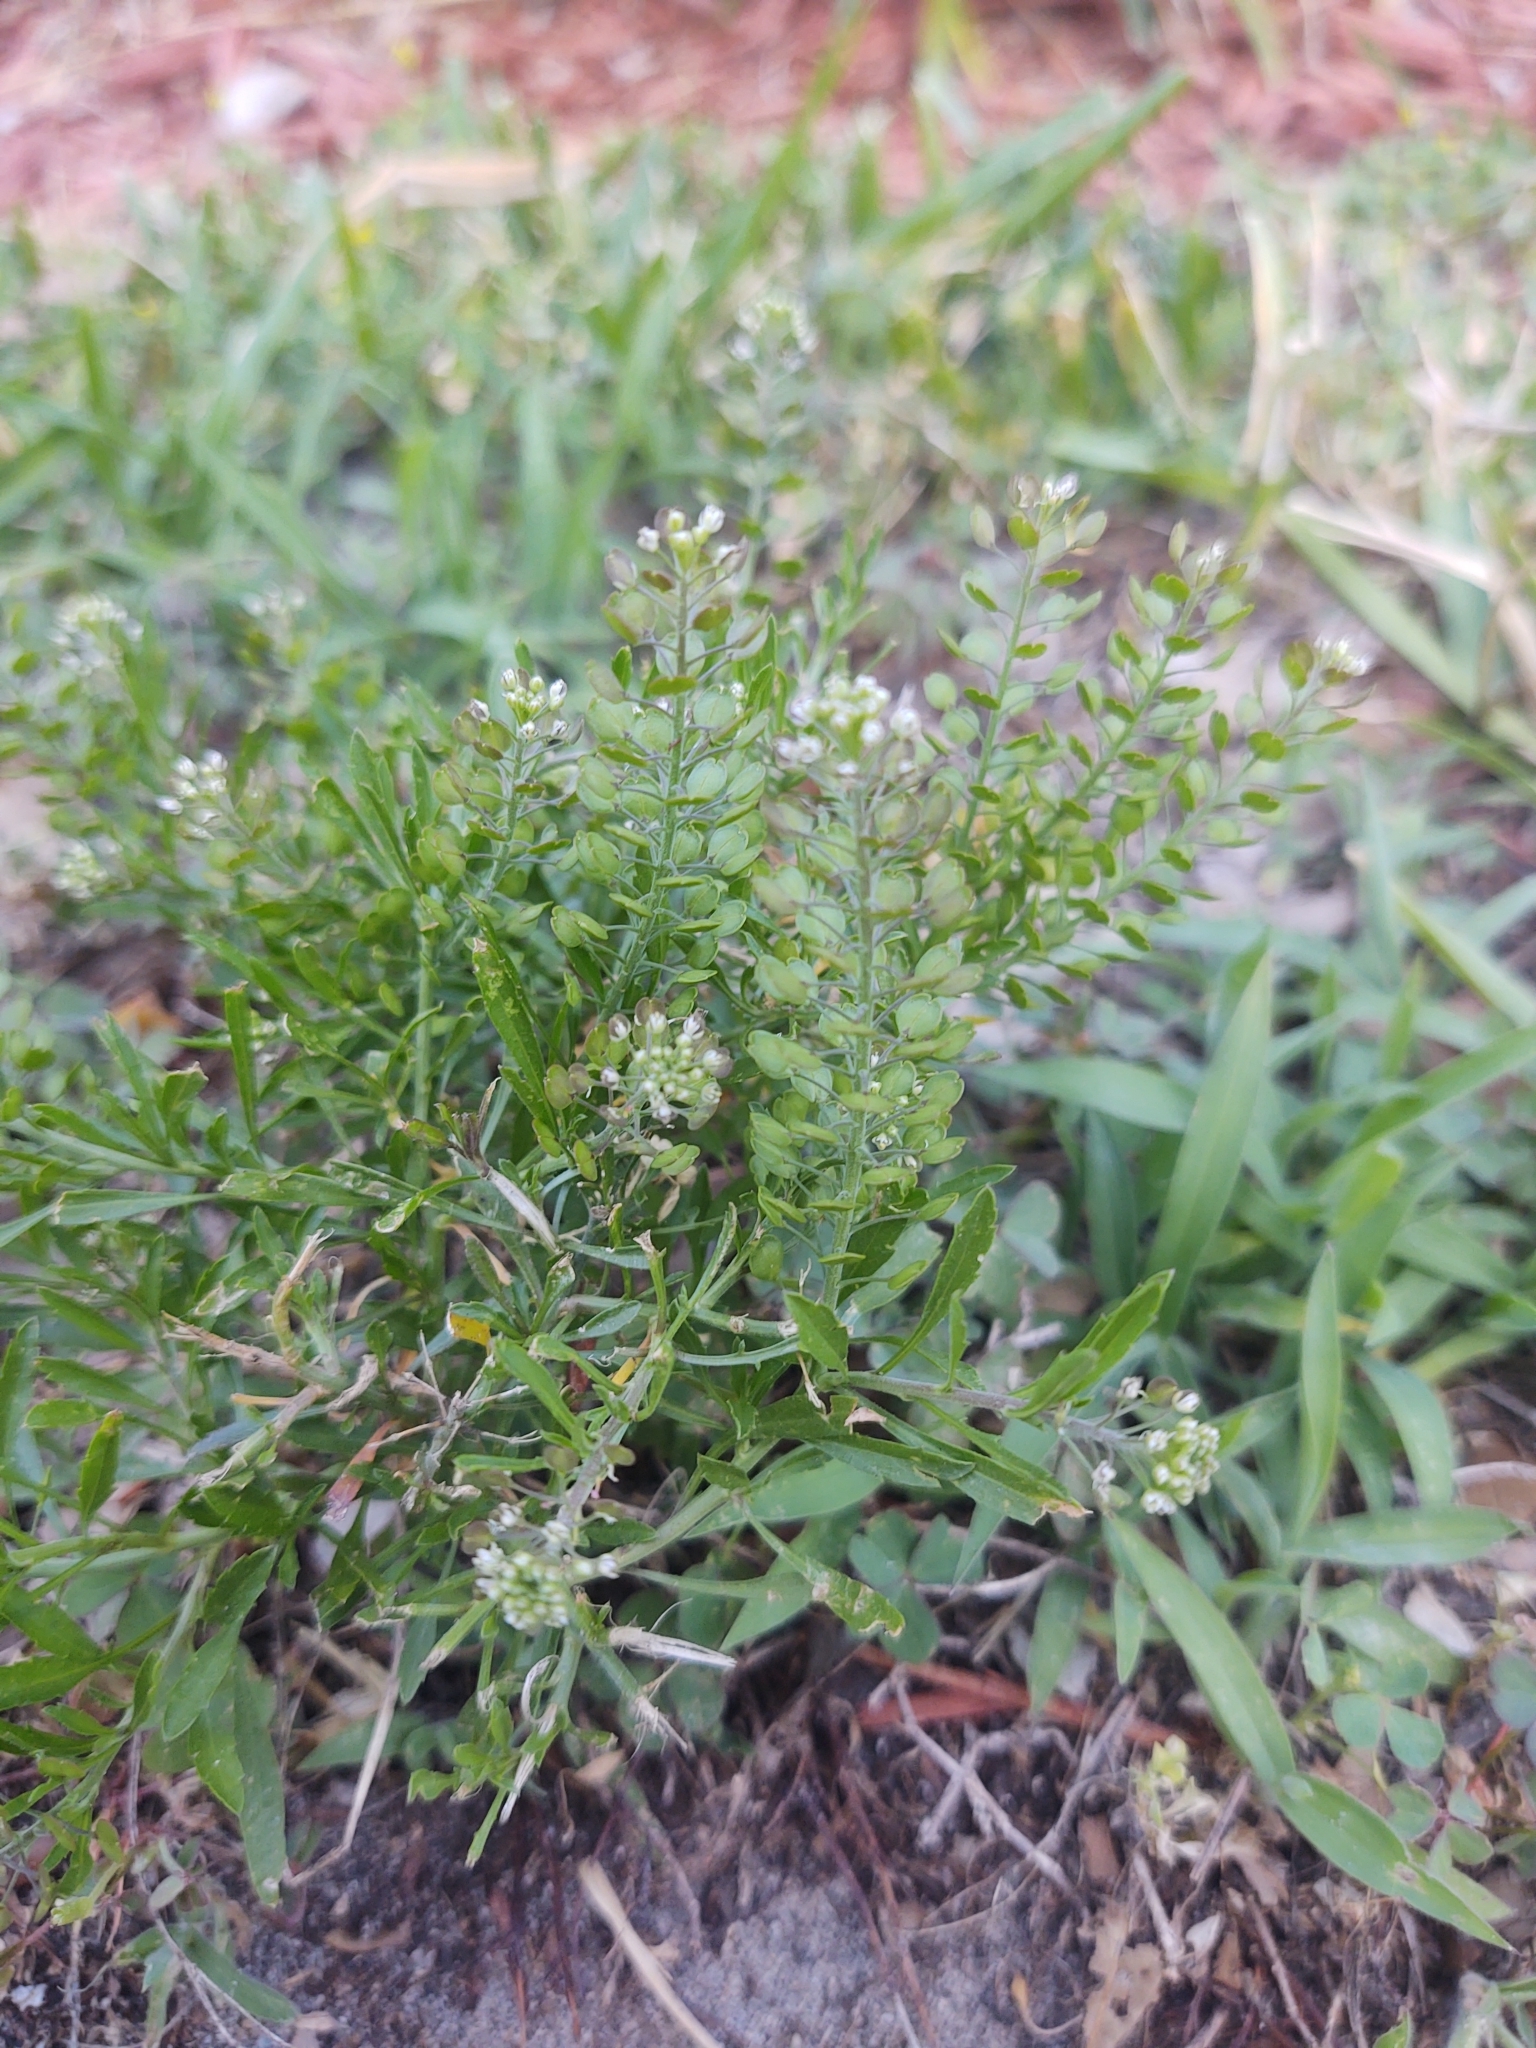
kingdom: Plantae
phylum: Tracheophyta
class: Magnoliopsida
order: Brassicales
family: Brassicaceae
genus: Lepidium
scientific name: Lepidium virginicum
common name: Least pepperwort
